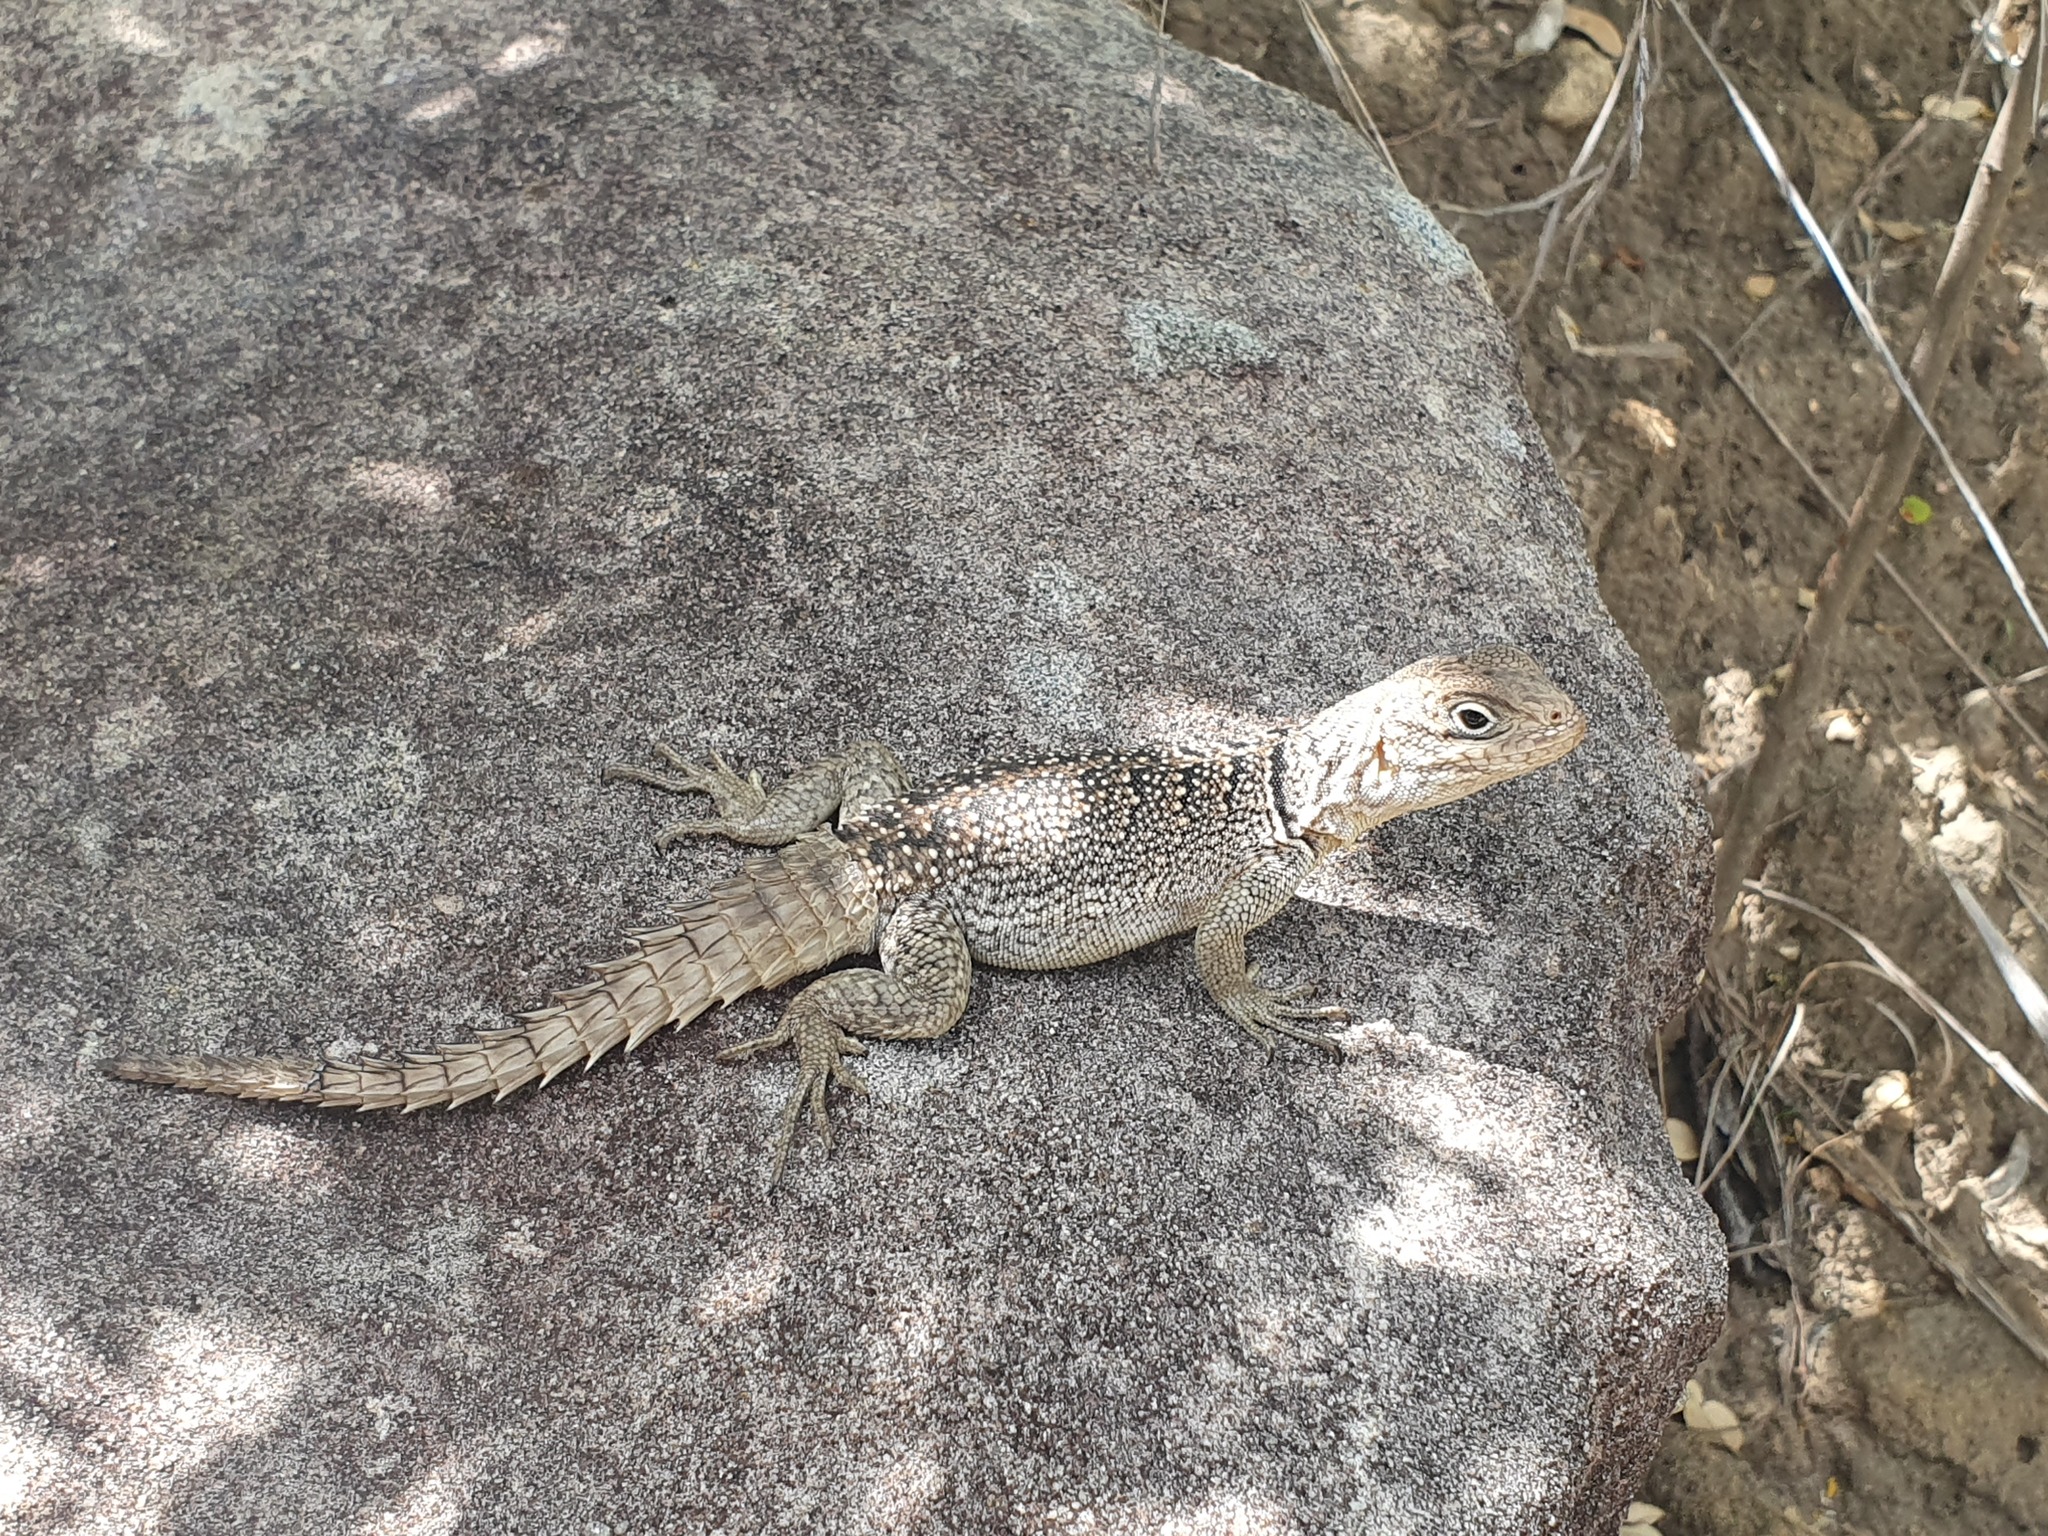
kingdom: Animalia
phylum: Chordata
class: Squamata
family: Opluridae
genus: Oplurus
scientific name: Oplurus cyclurus
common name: Merrem's madagascar swift
